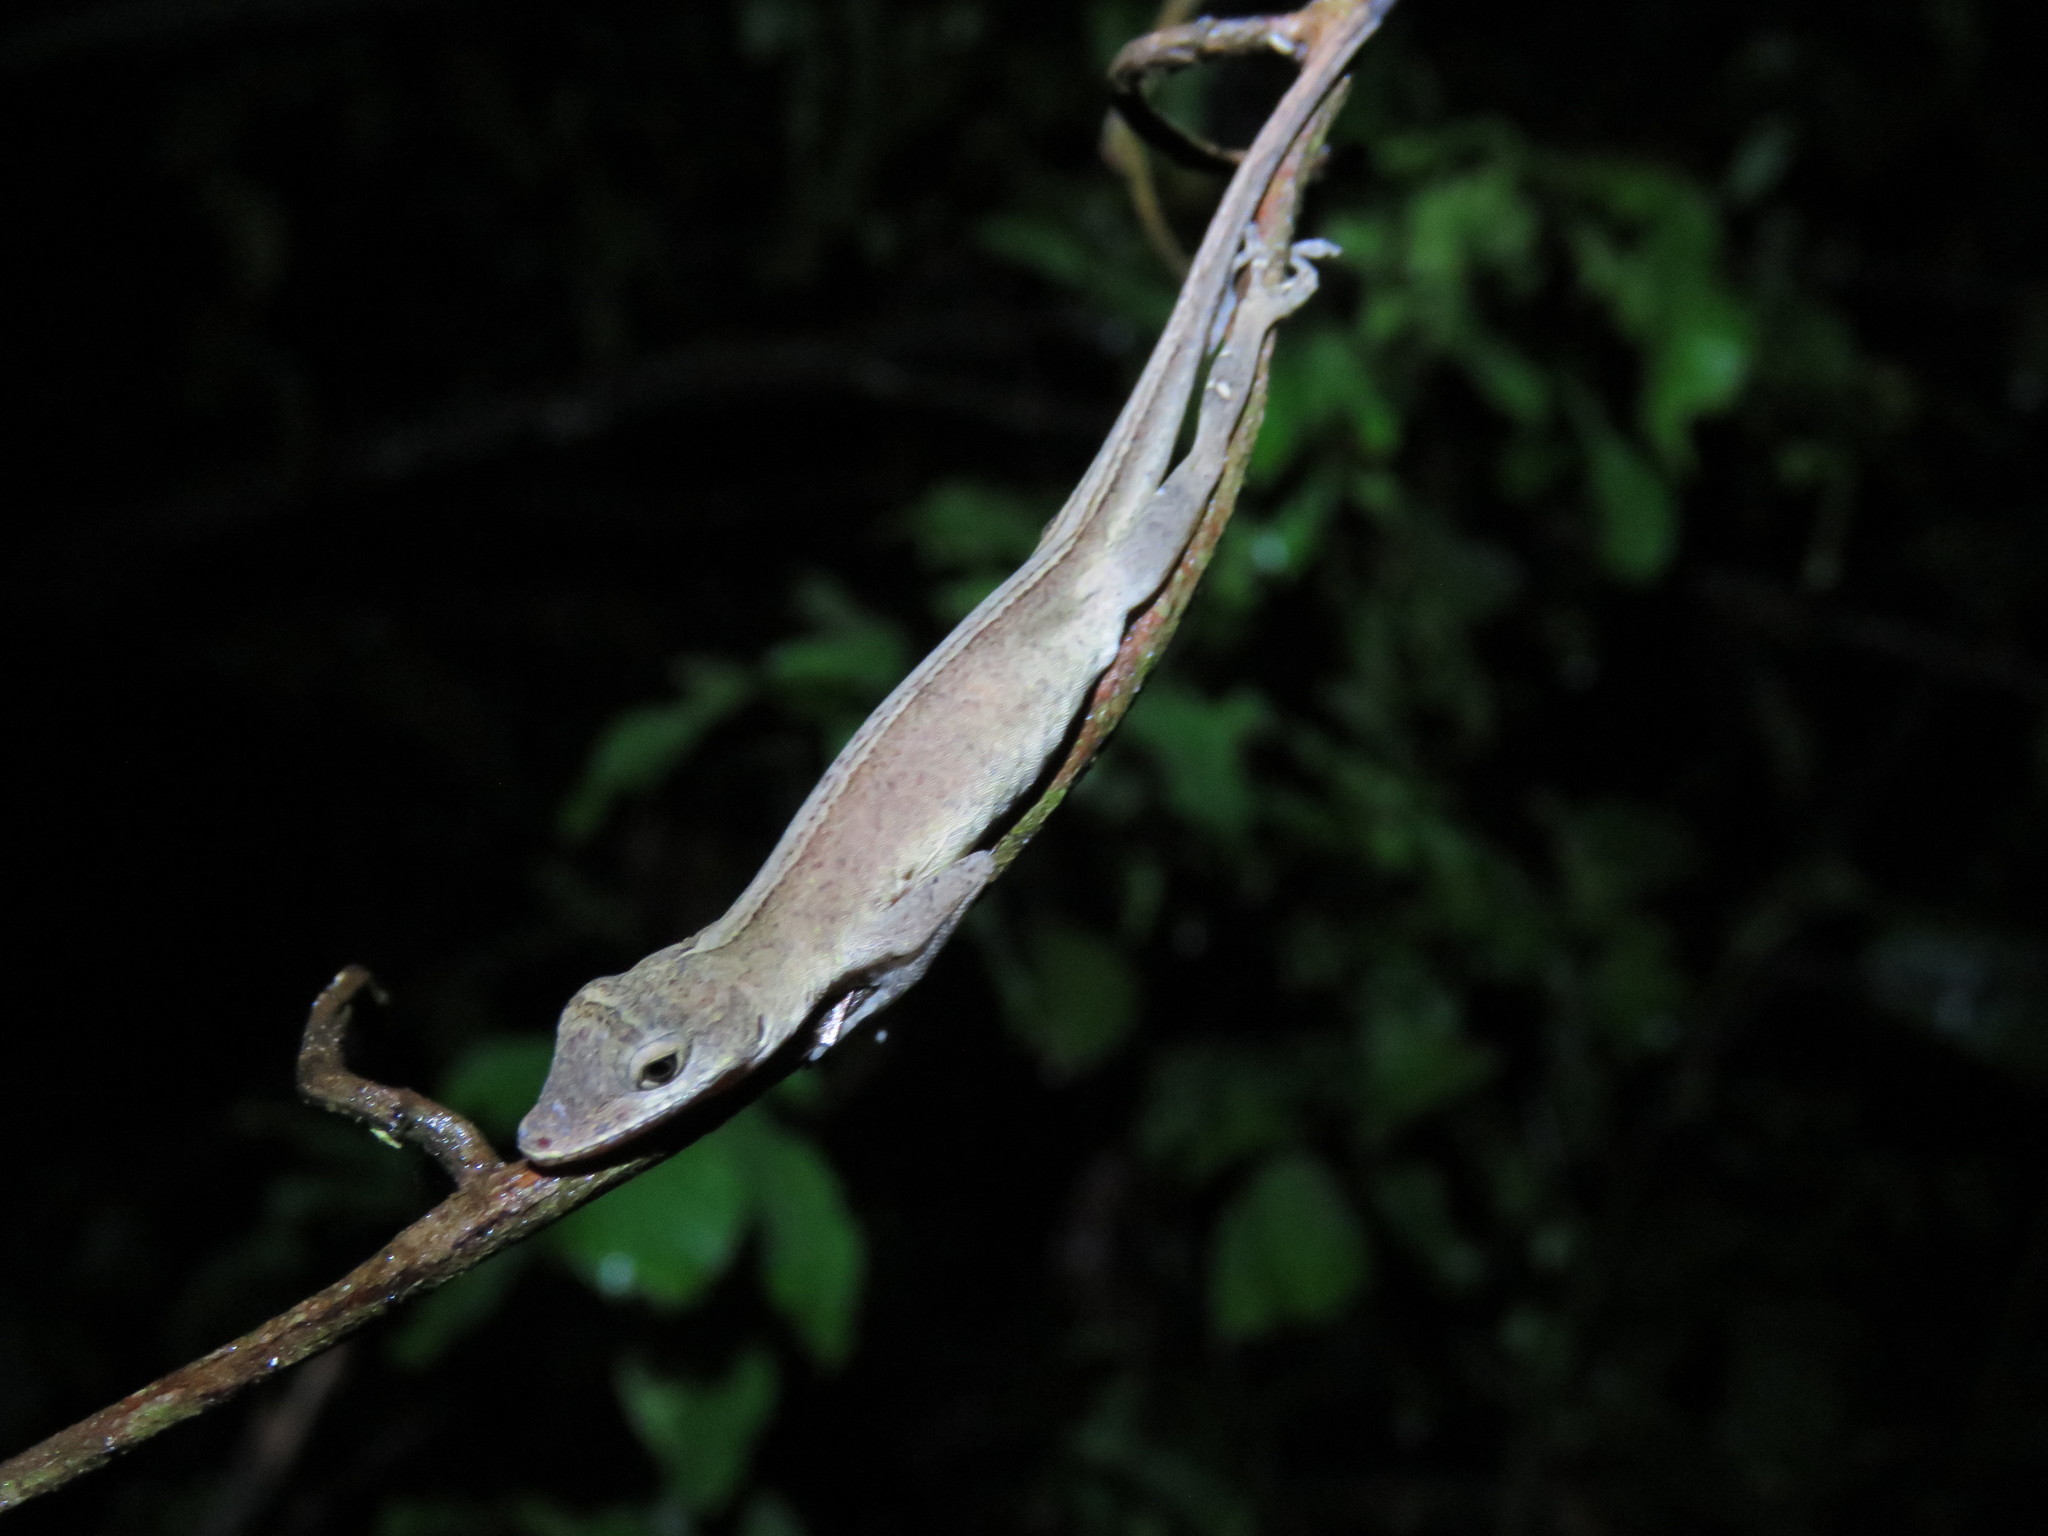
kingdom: Animalia
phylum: Chordata
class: Squamata
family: Dactyloidae
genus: Anolis
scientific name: Anolis fuscoauratus
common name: Brown-eared anole
